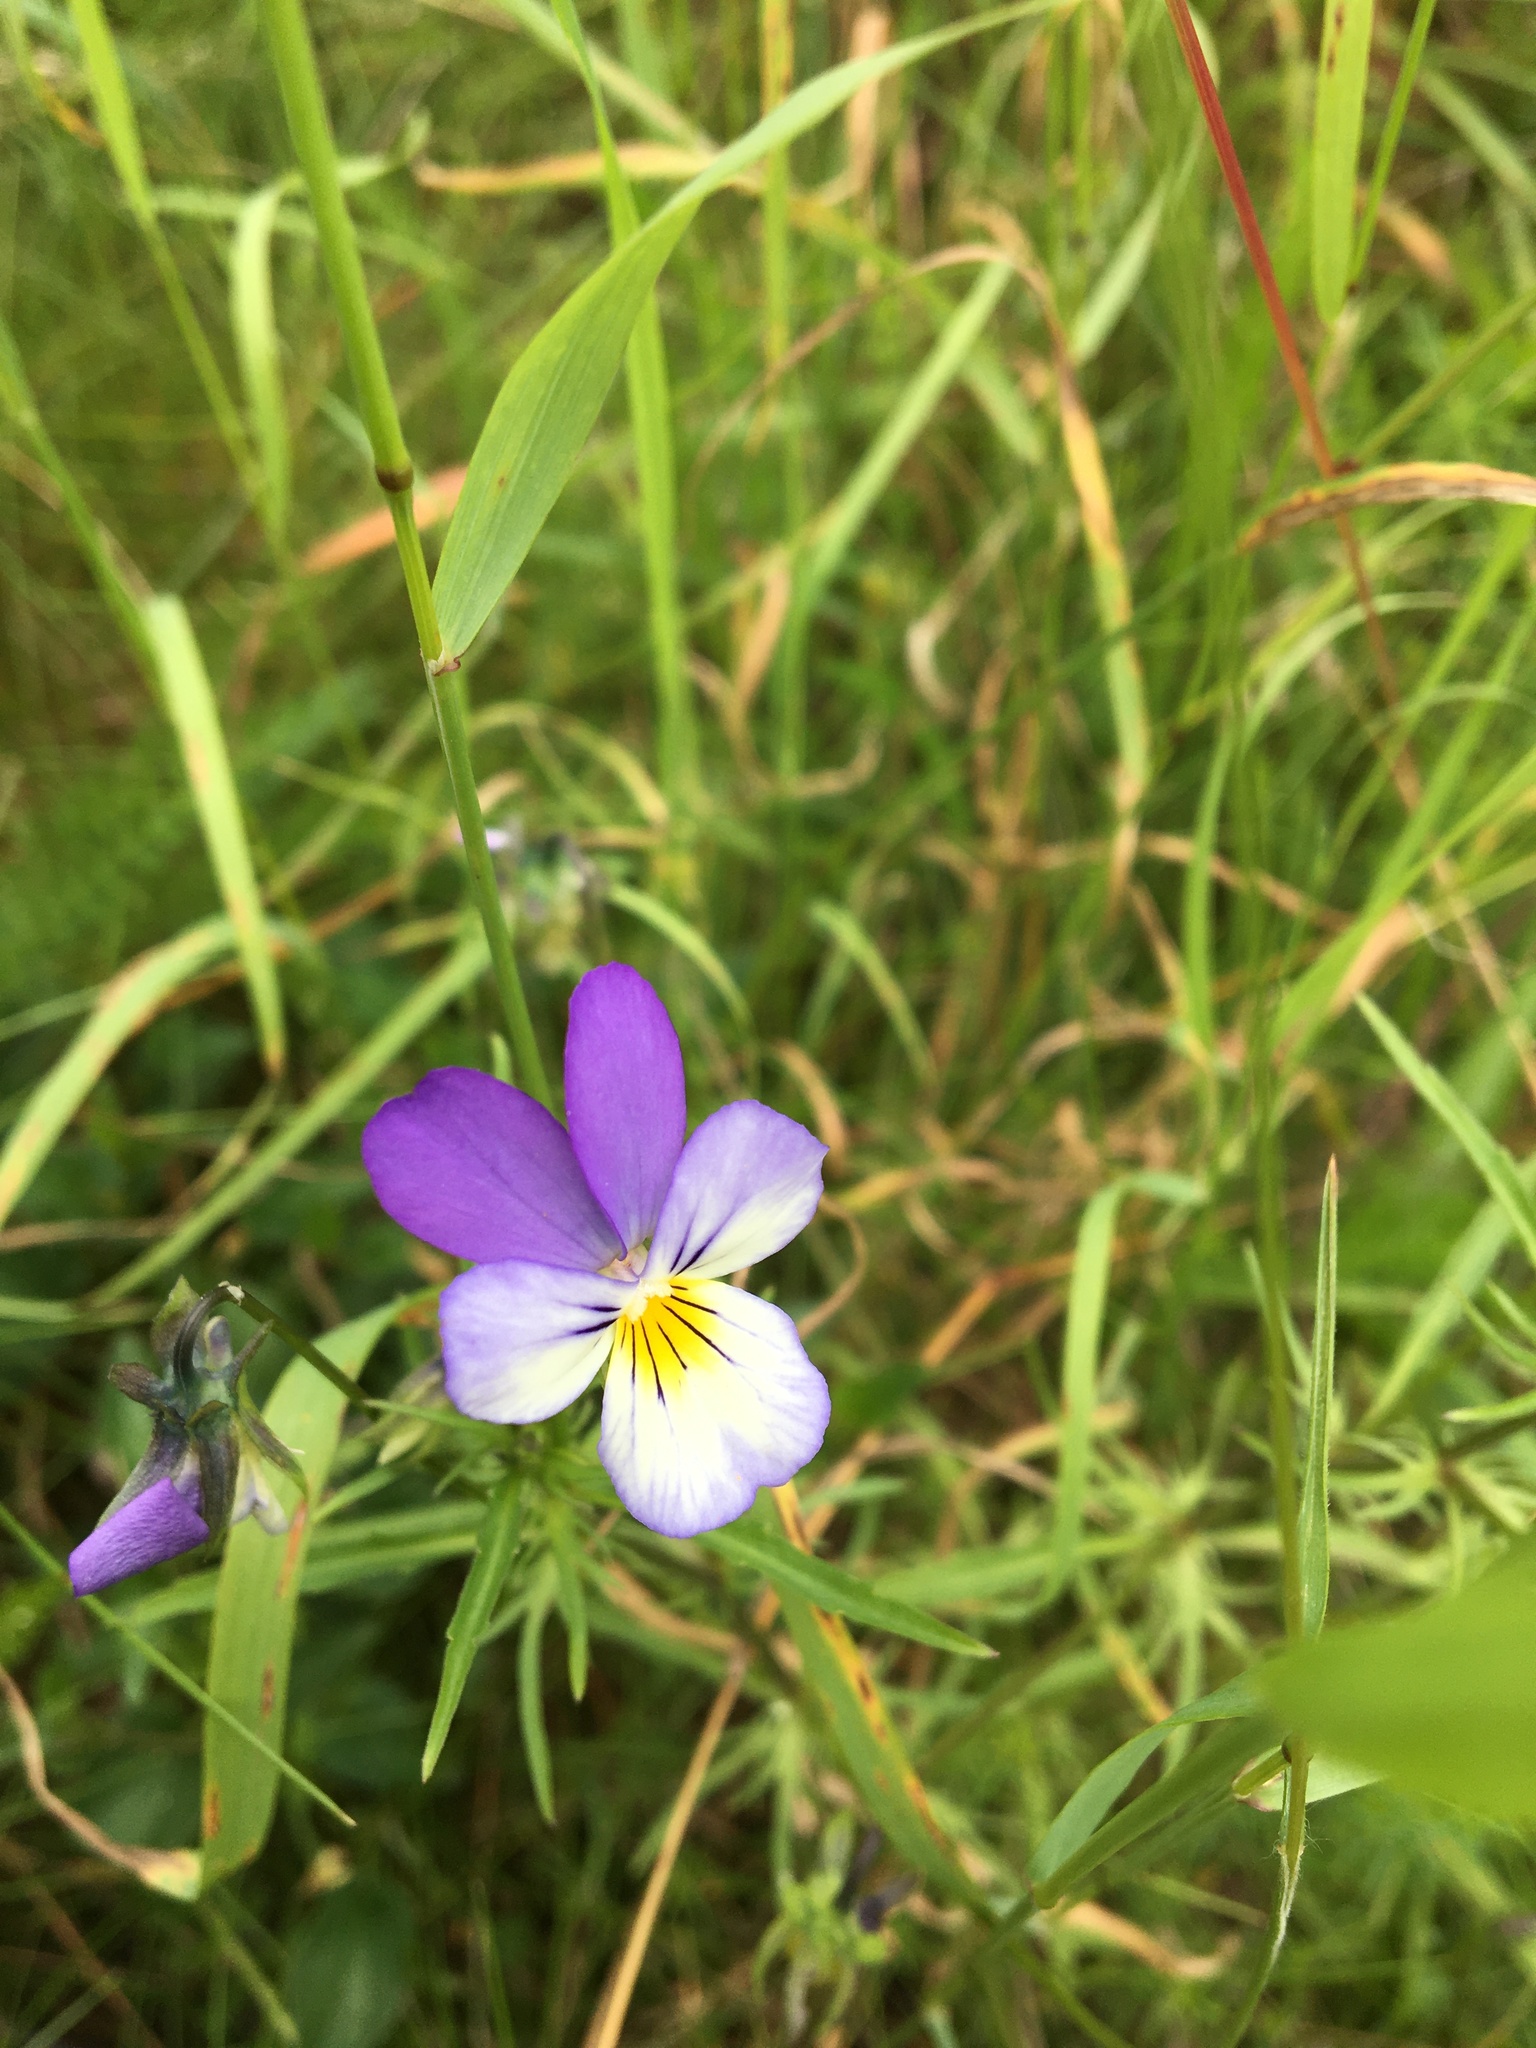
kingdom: Plantae
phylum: Tracheophyta
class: Magnoliopsida
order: Malpighiales
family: Violaceae
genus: Viola
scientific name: Viola tricolor
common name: Pansy
